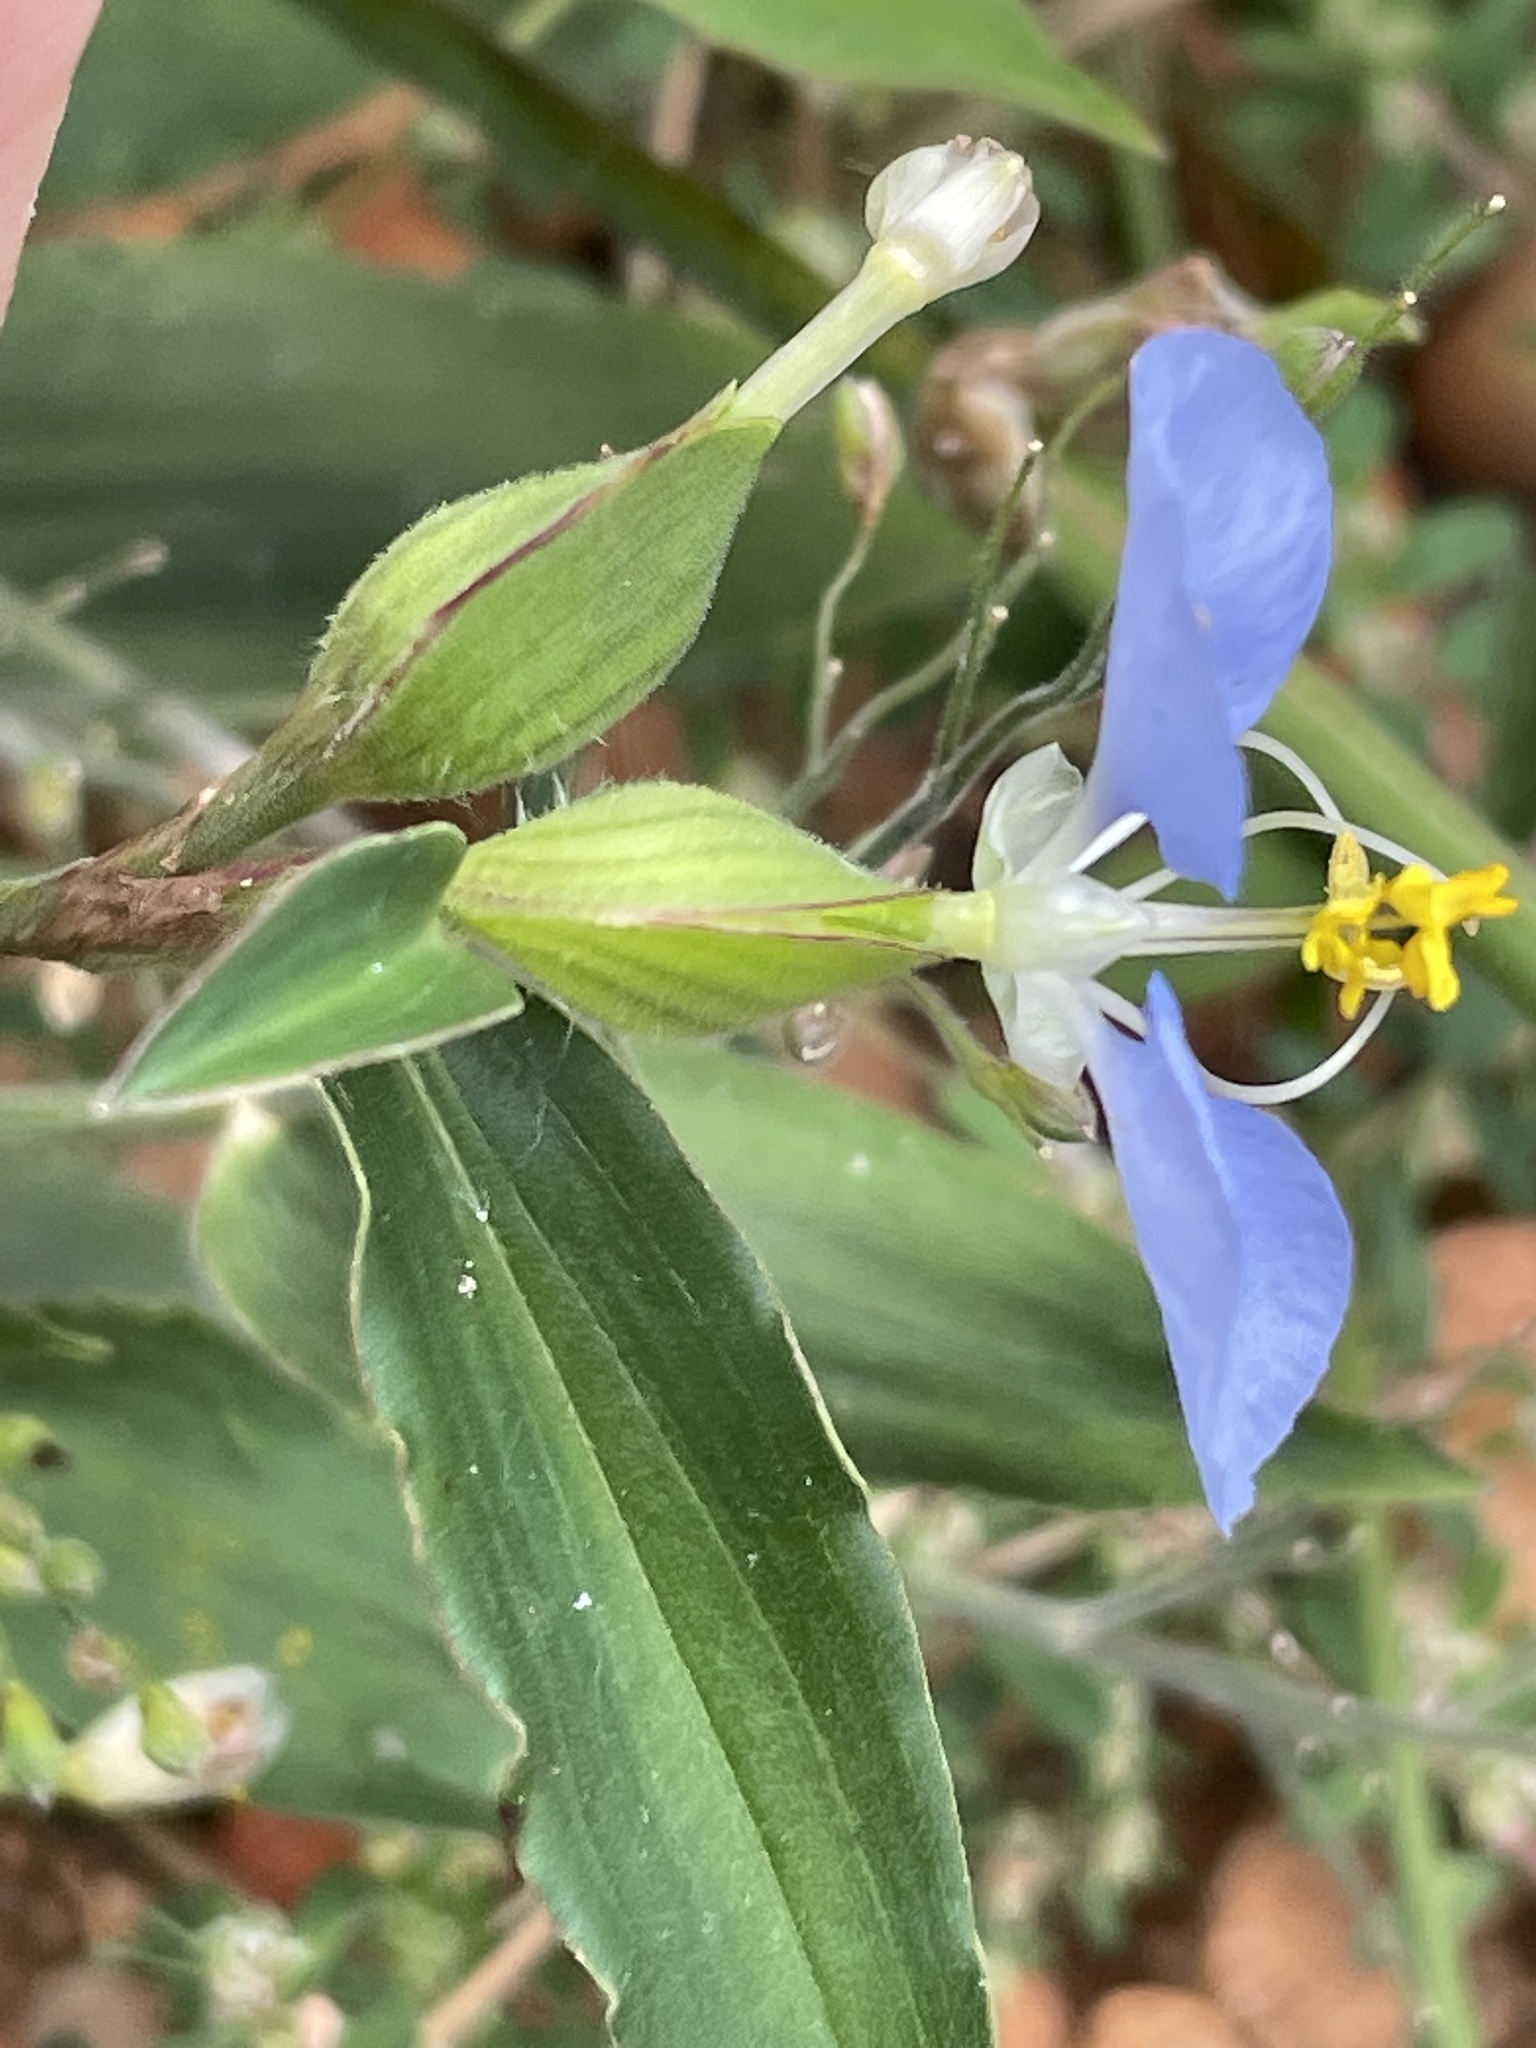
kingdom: Plantae
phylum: Tracheophyta
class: Liliopsida
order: Commelinales
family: Commelinaceae
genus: Commelina
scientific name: Commelina erecta
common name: Blousel blommetjie
